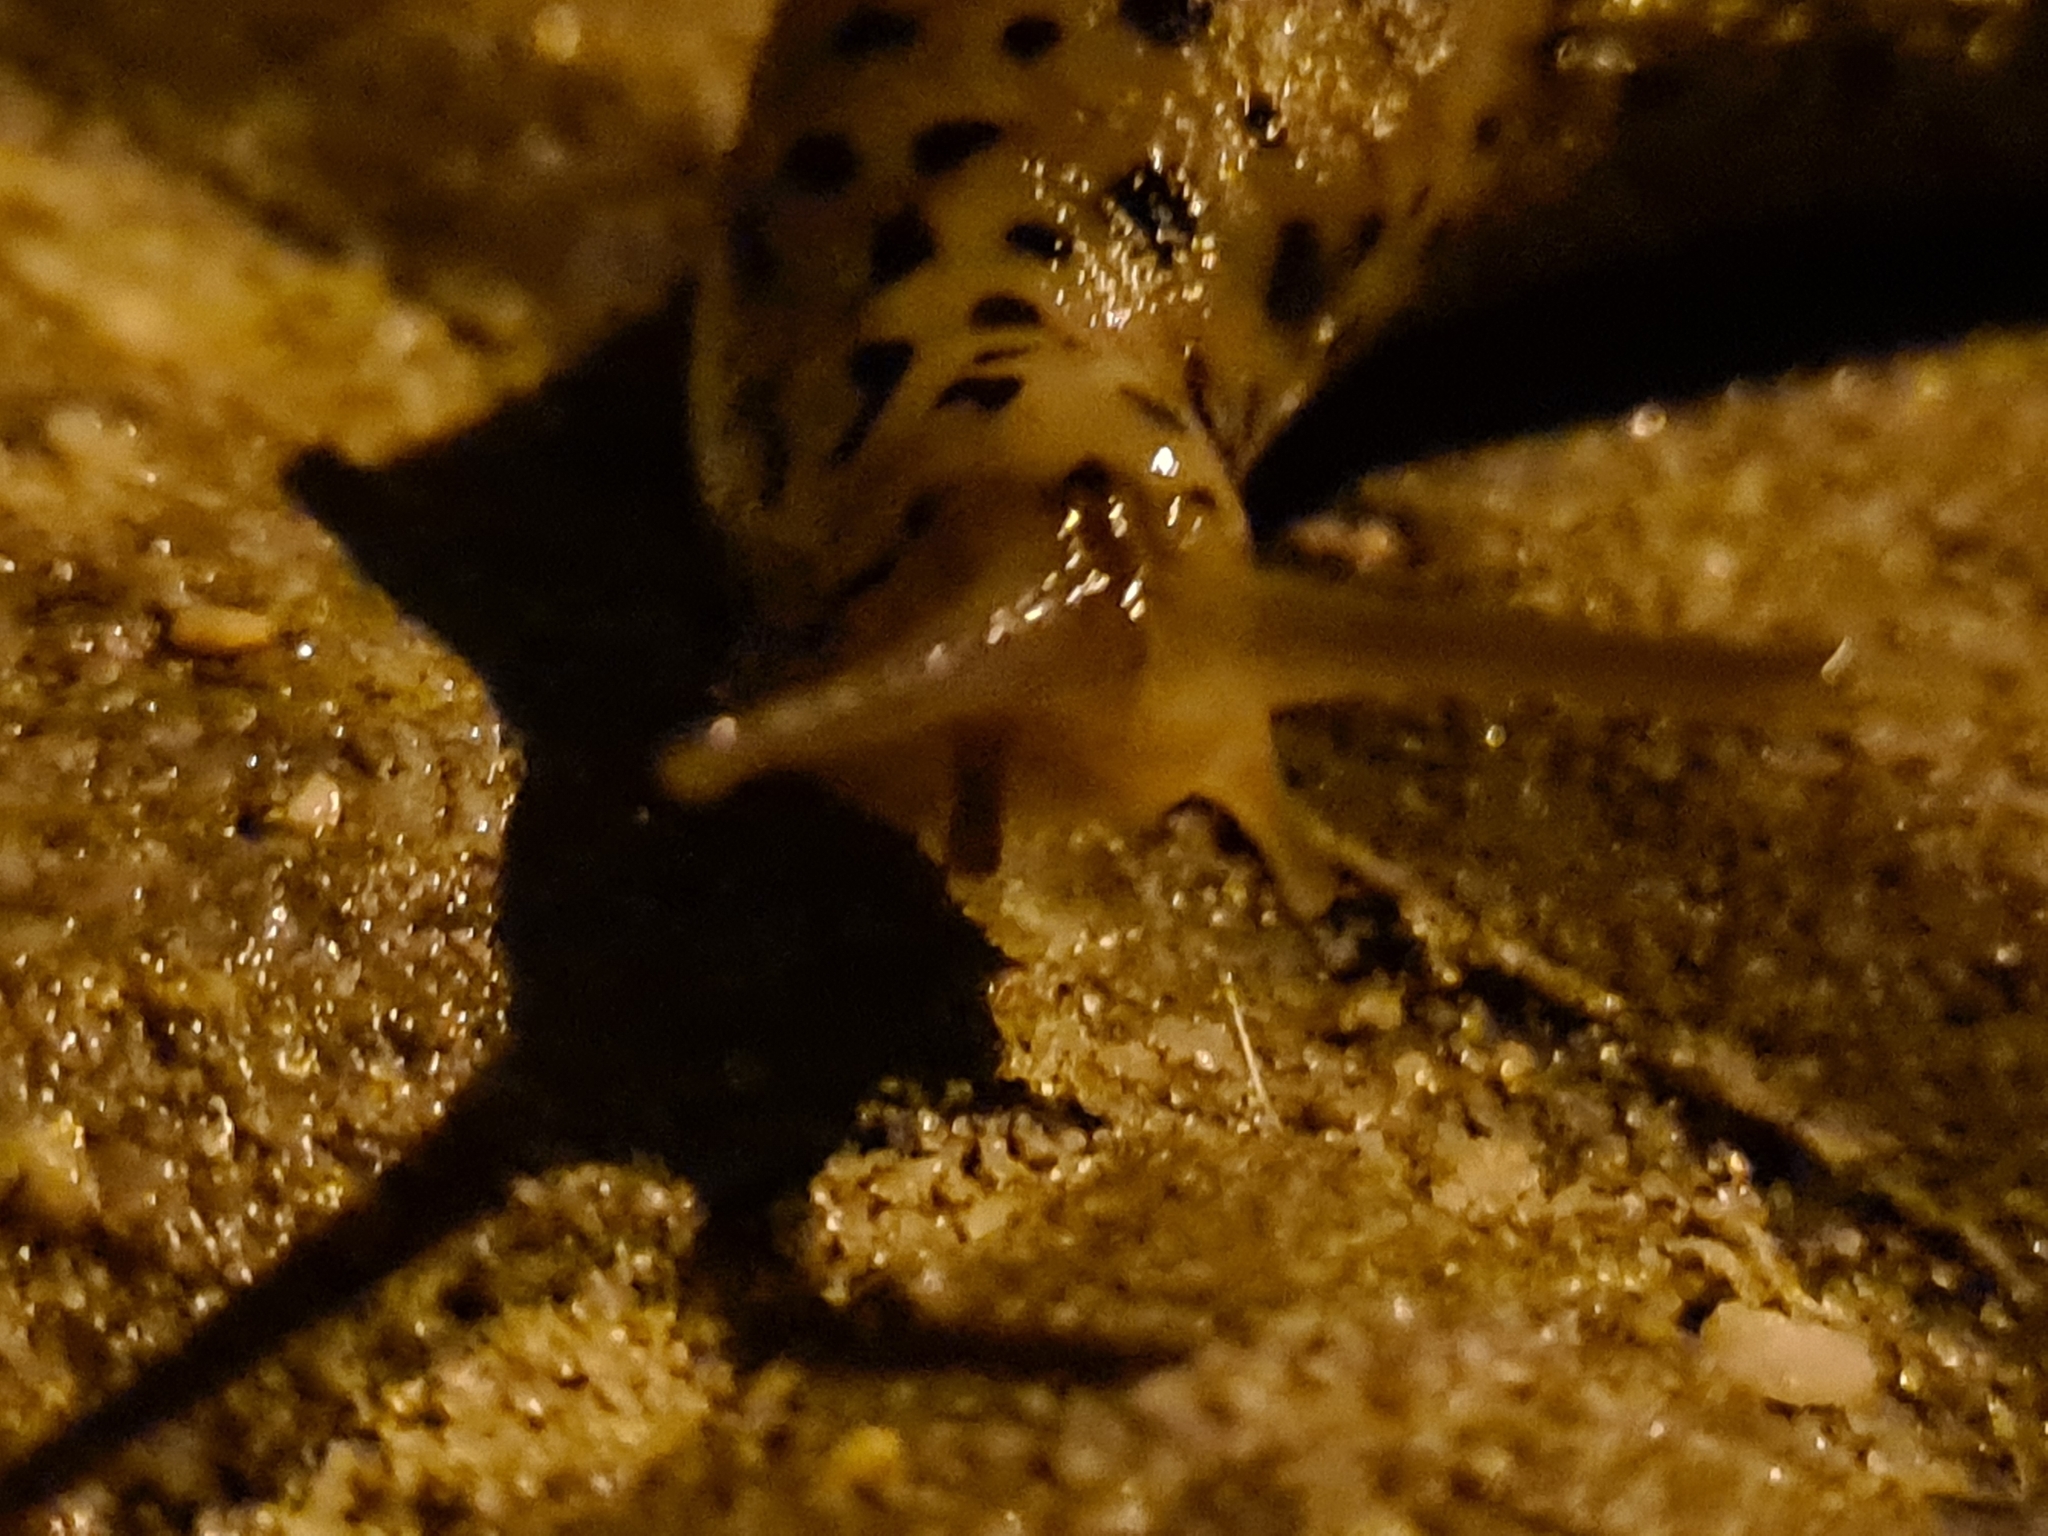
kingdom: Animalia
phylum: Mollusca
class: Gastropoda
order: Stylommatophora
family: Limacidae
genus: Limax
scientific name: Limax maximus
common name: Great grey slug
